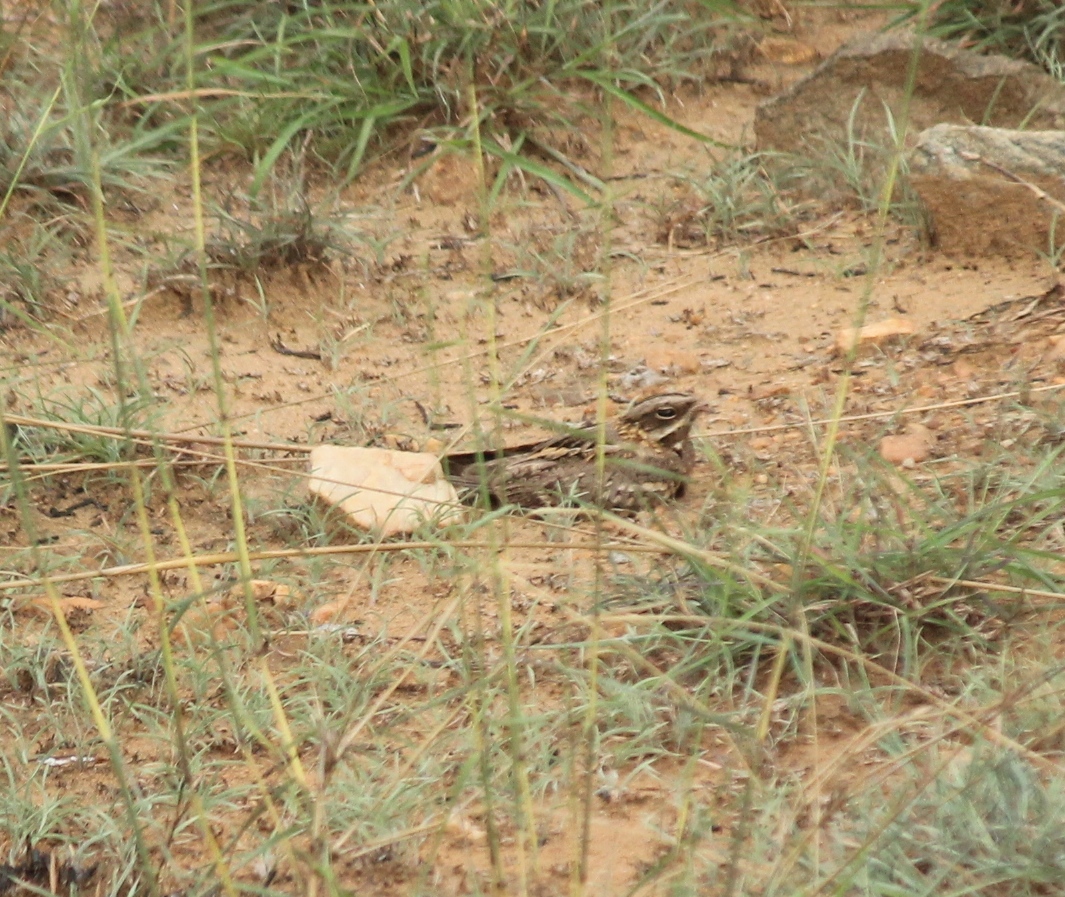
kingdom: Animalia
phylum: Chordata
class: Aves
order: Caprimulgiformes
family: Caprimulgidae
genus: Caprimulgus
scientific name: Caprimulgus asiaticus
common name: Indian nightjar
